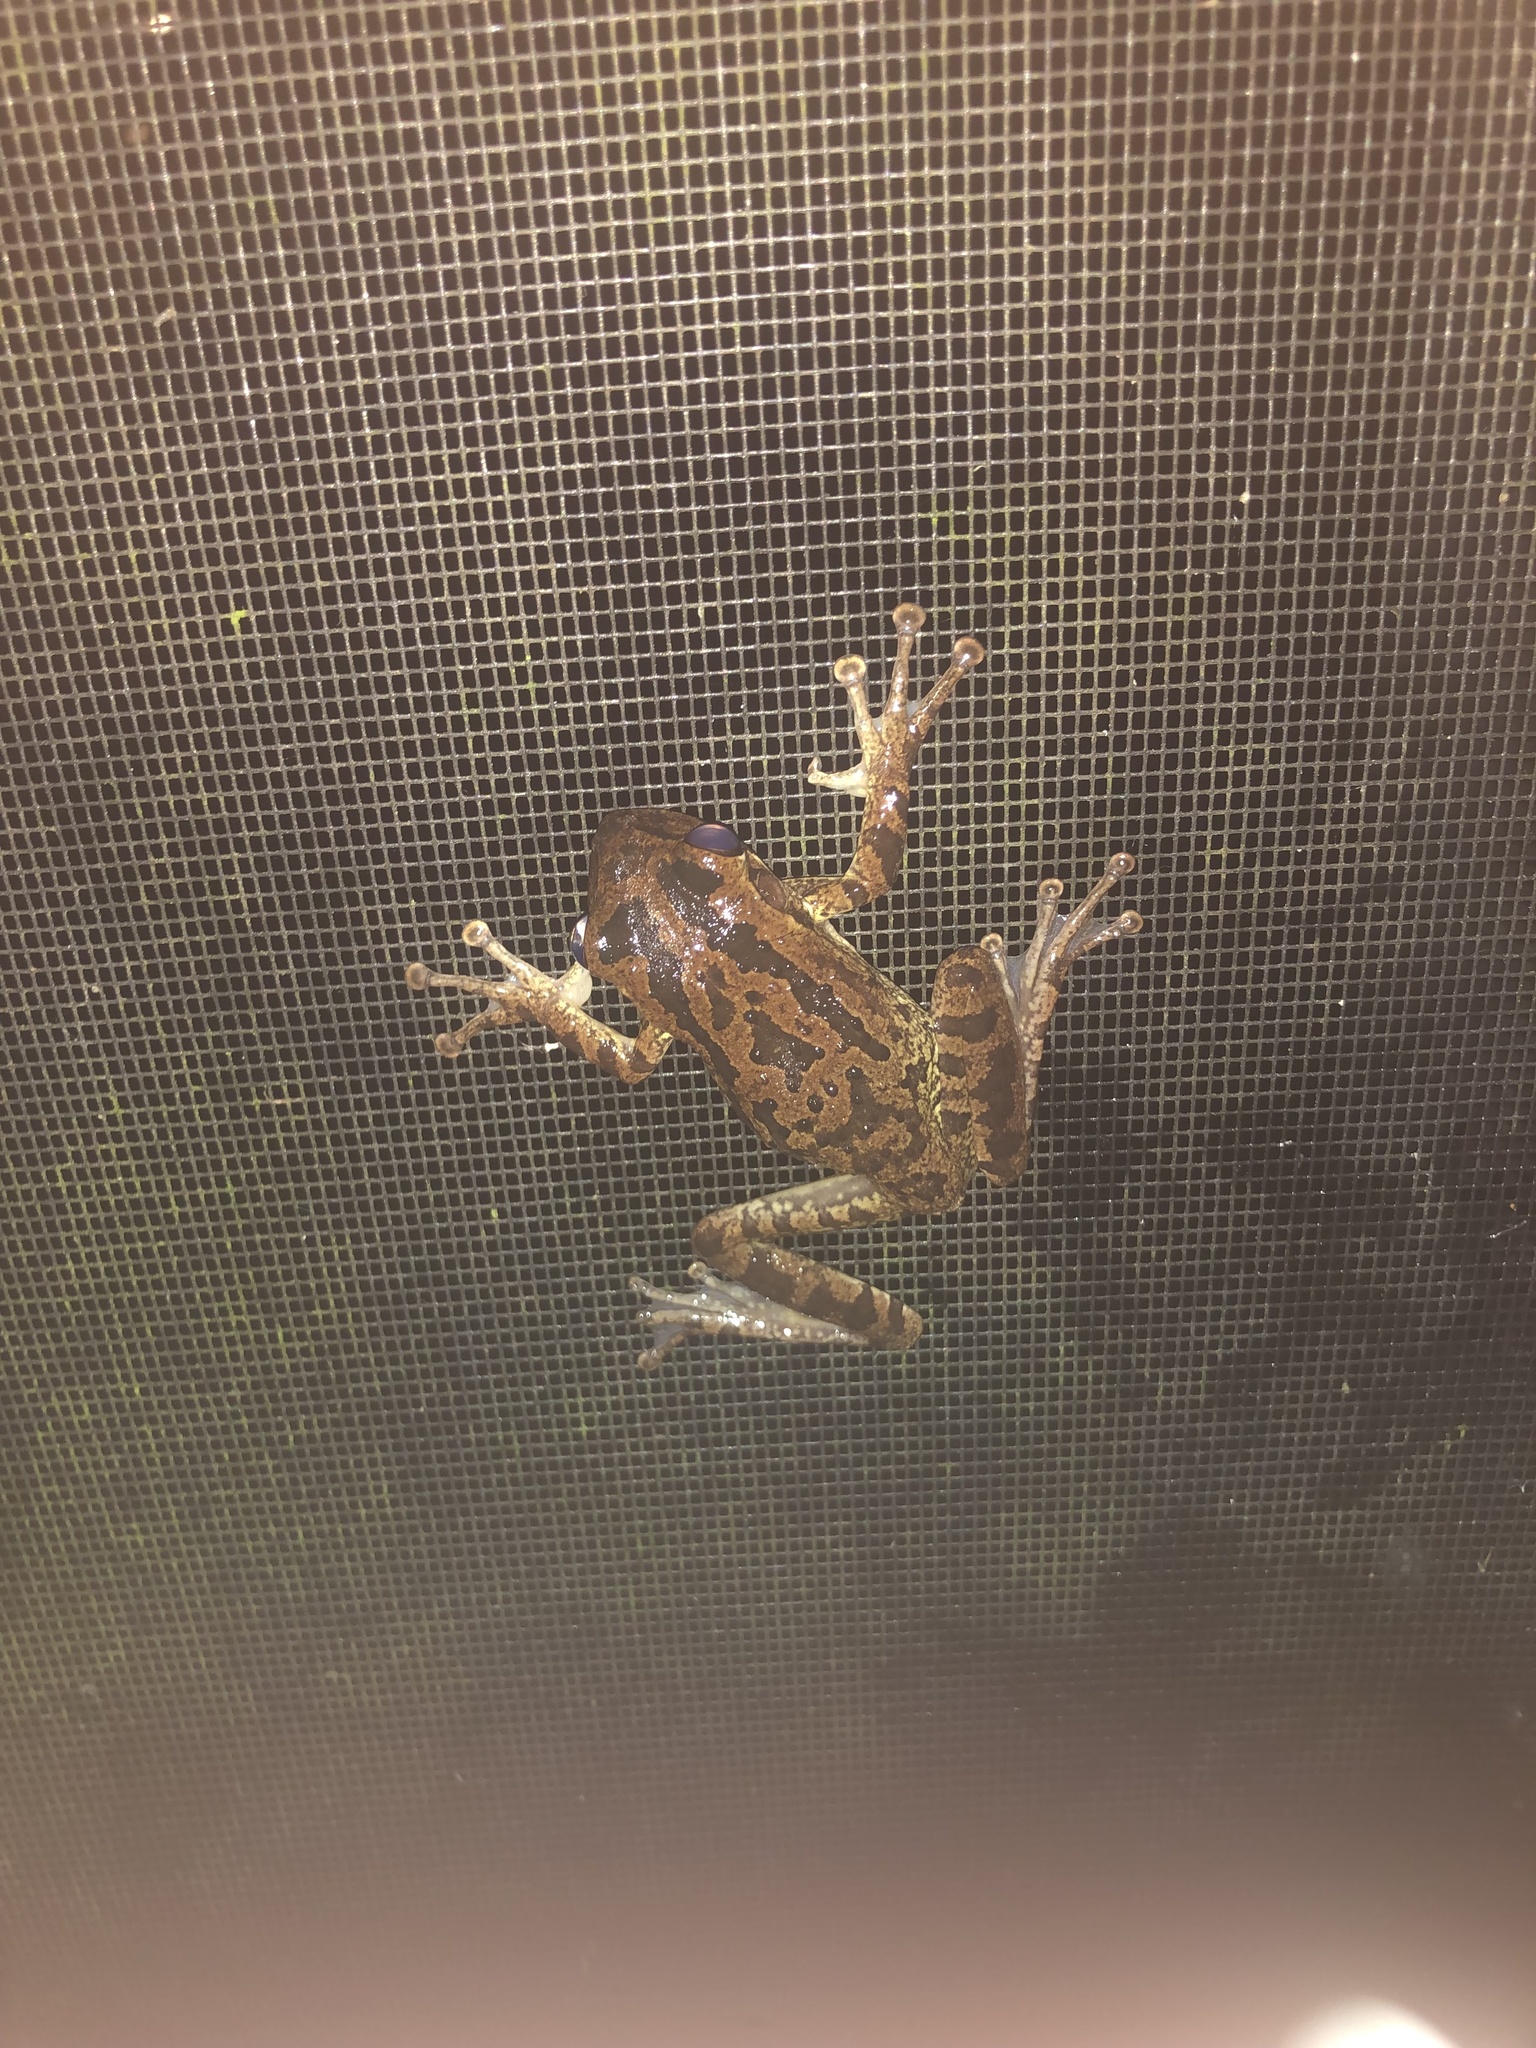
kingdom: Animalia
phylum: Chordata
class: Amphibia
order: Anura
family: Hylidae
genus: Osteopilus
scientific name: Osteopilus septentrionalis
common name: Cuban treefrog
